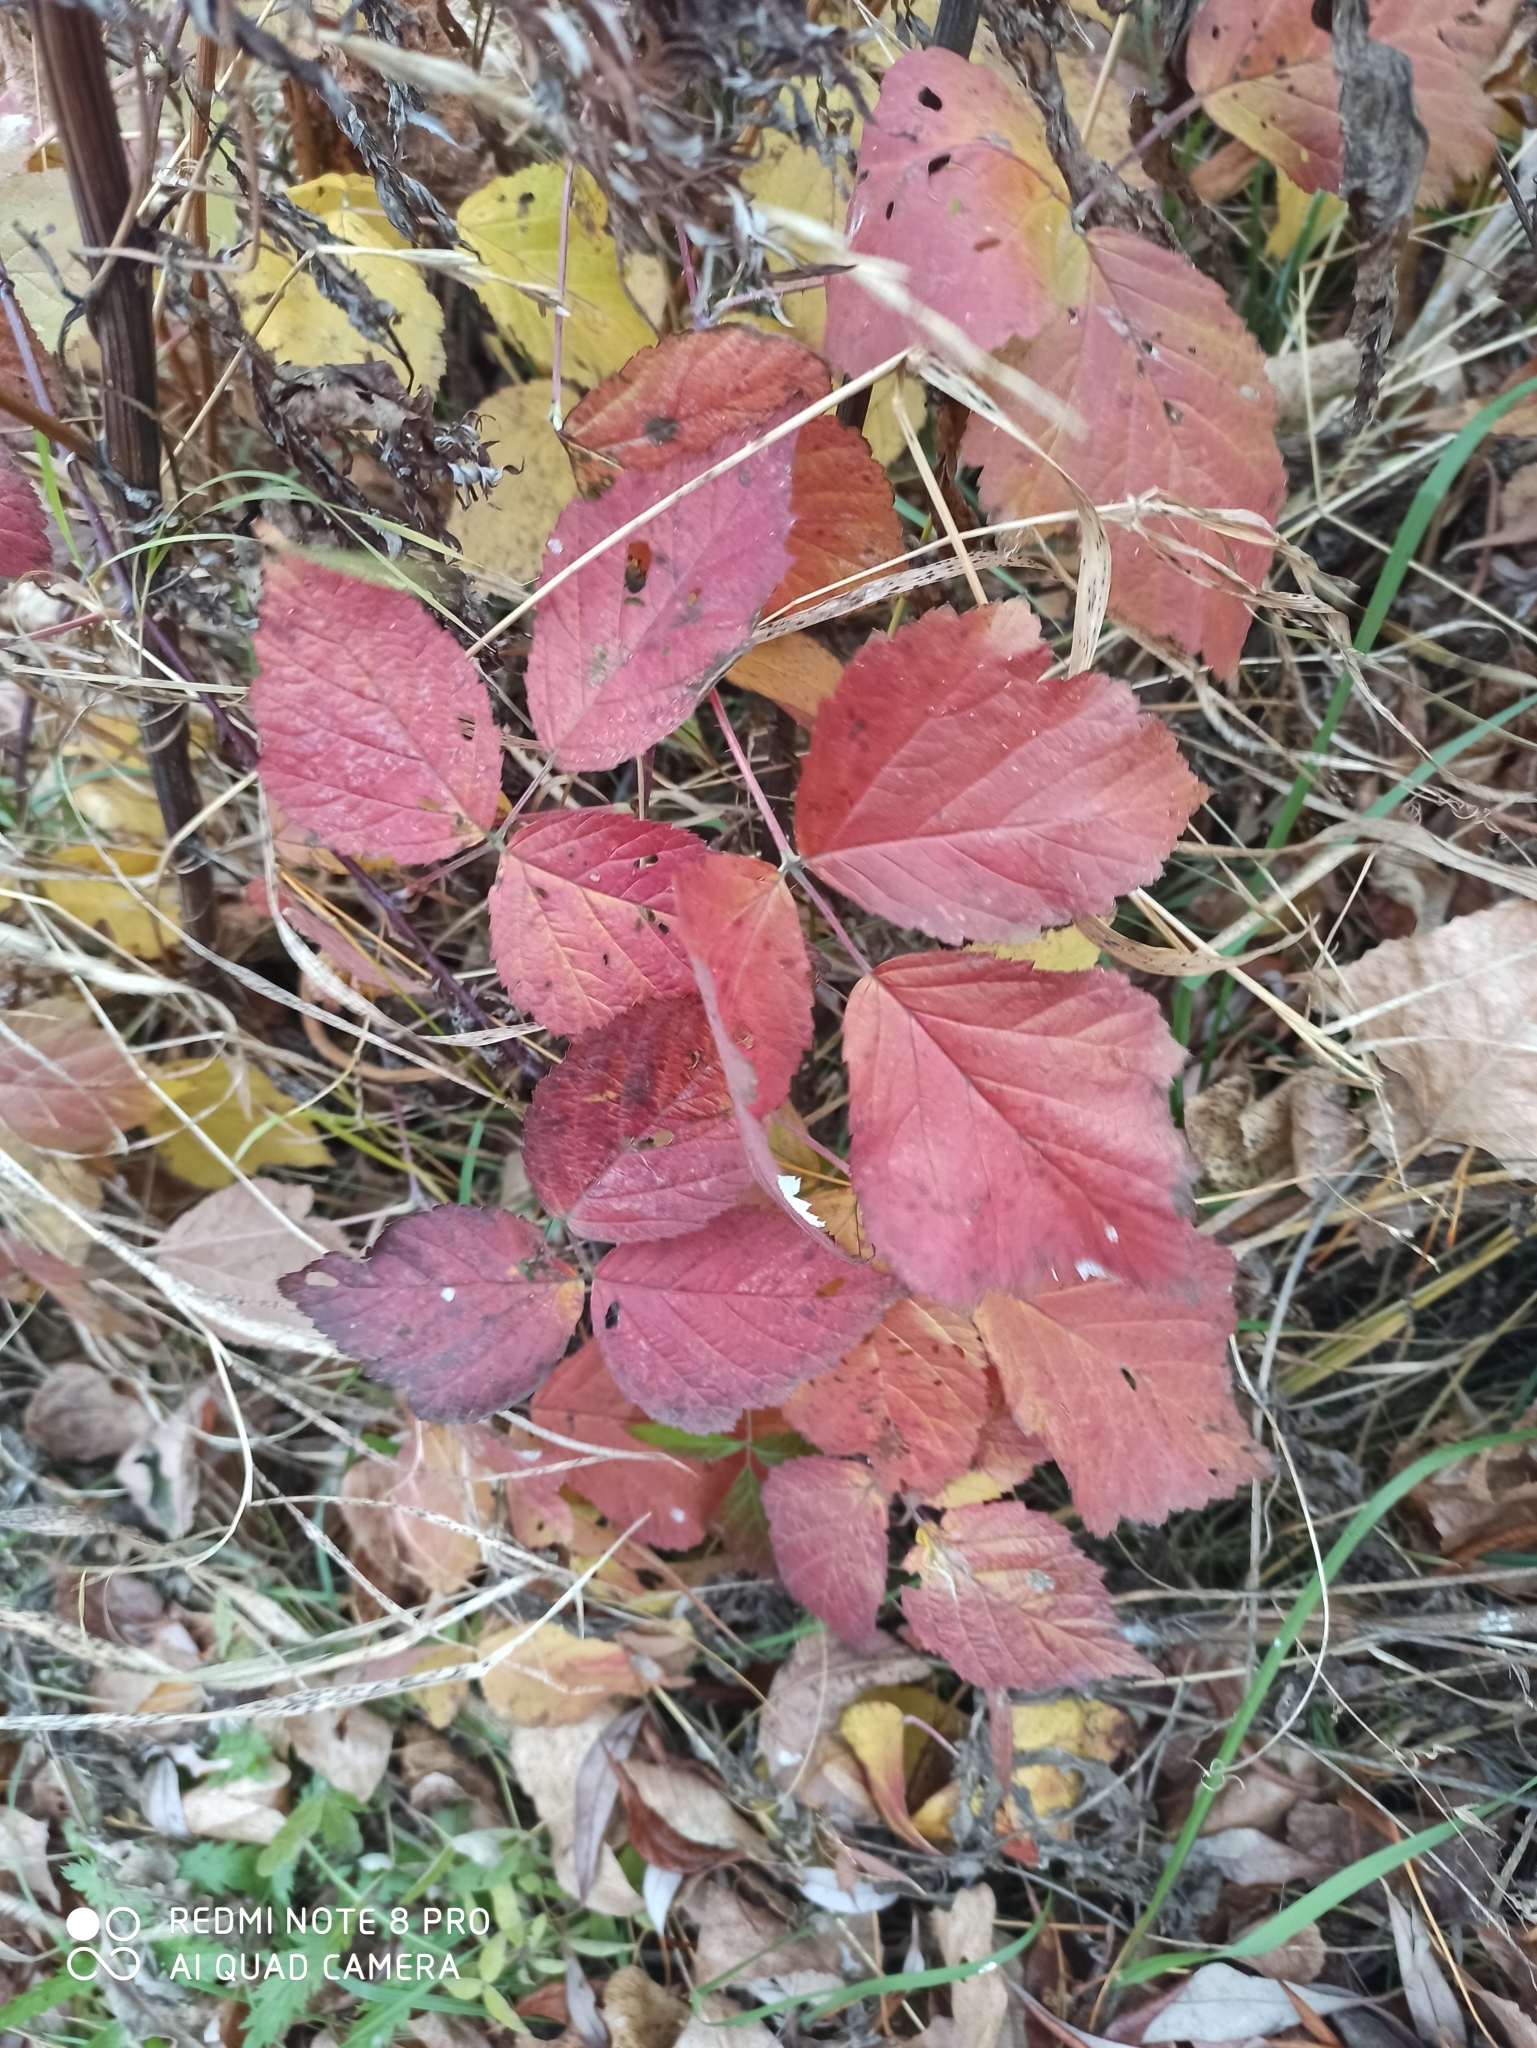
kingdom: Plantae
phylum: Tracheophyta
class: Magnoliopsida
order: Rosales
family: Rosaceae
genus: Rubus
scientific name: Rubus caesius
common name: Dewberry
